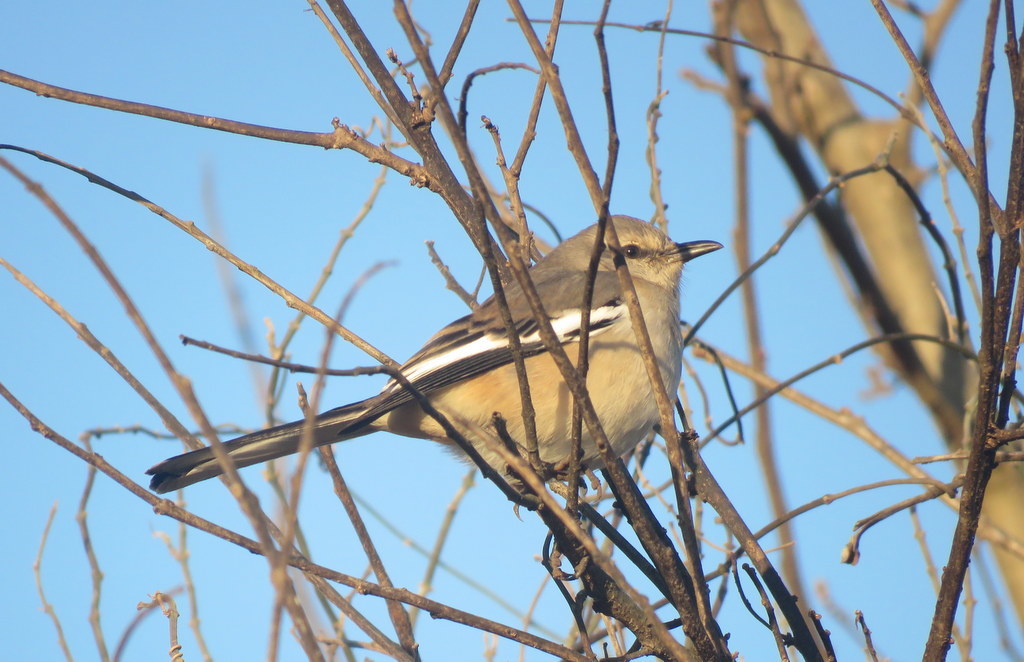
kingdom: Animalia
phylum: Chordata
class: Aves
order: Passeriformes
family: Mimidae
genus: Mimus
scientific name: Mimus triurus
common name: White-banded mockingbird
